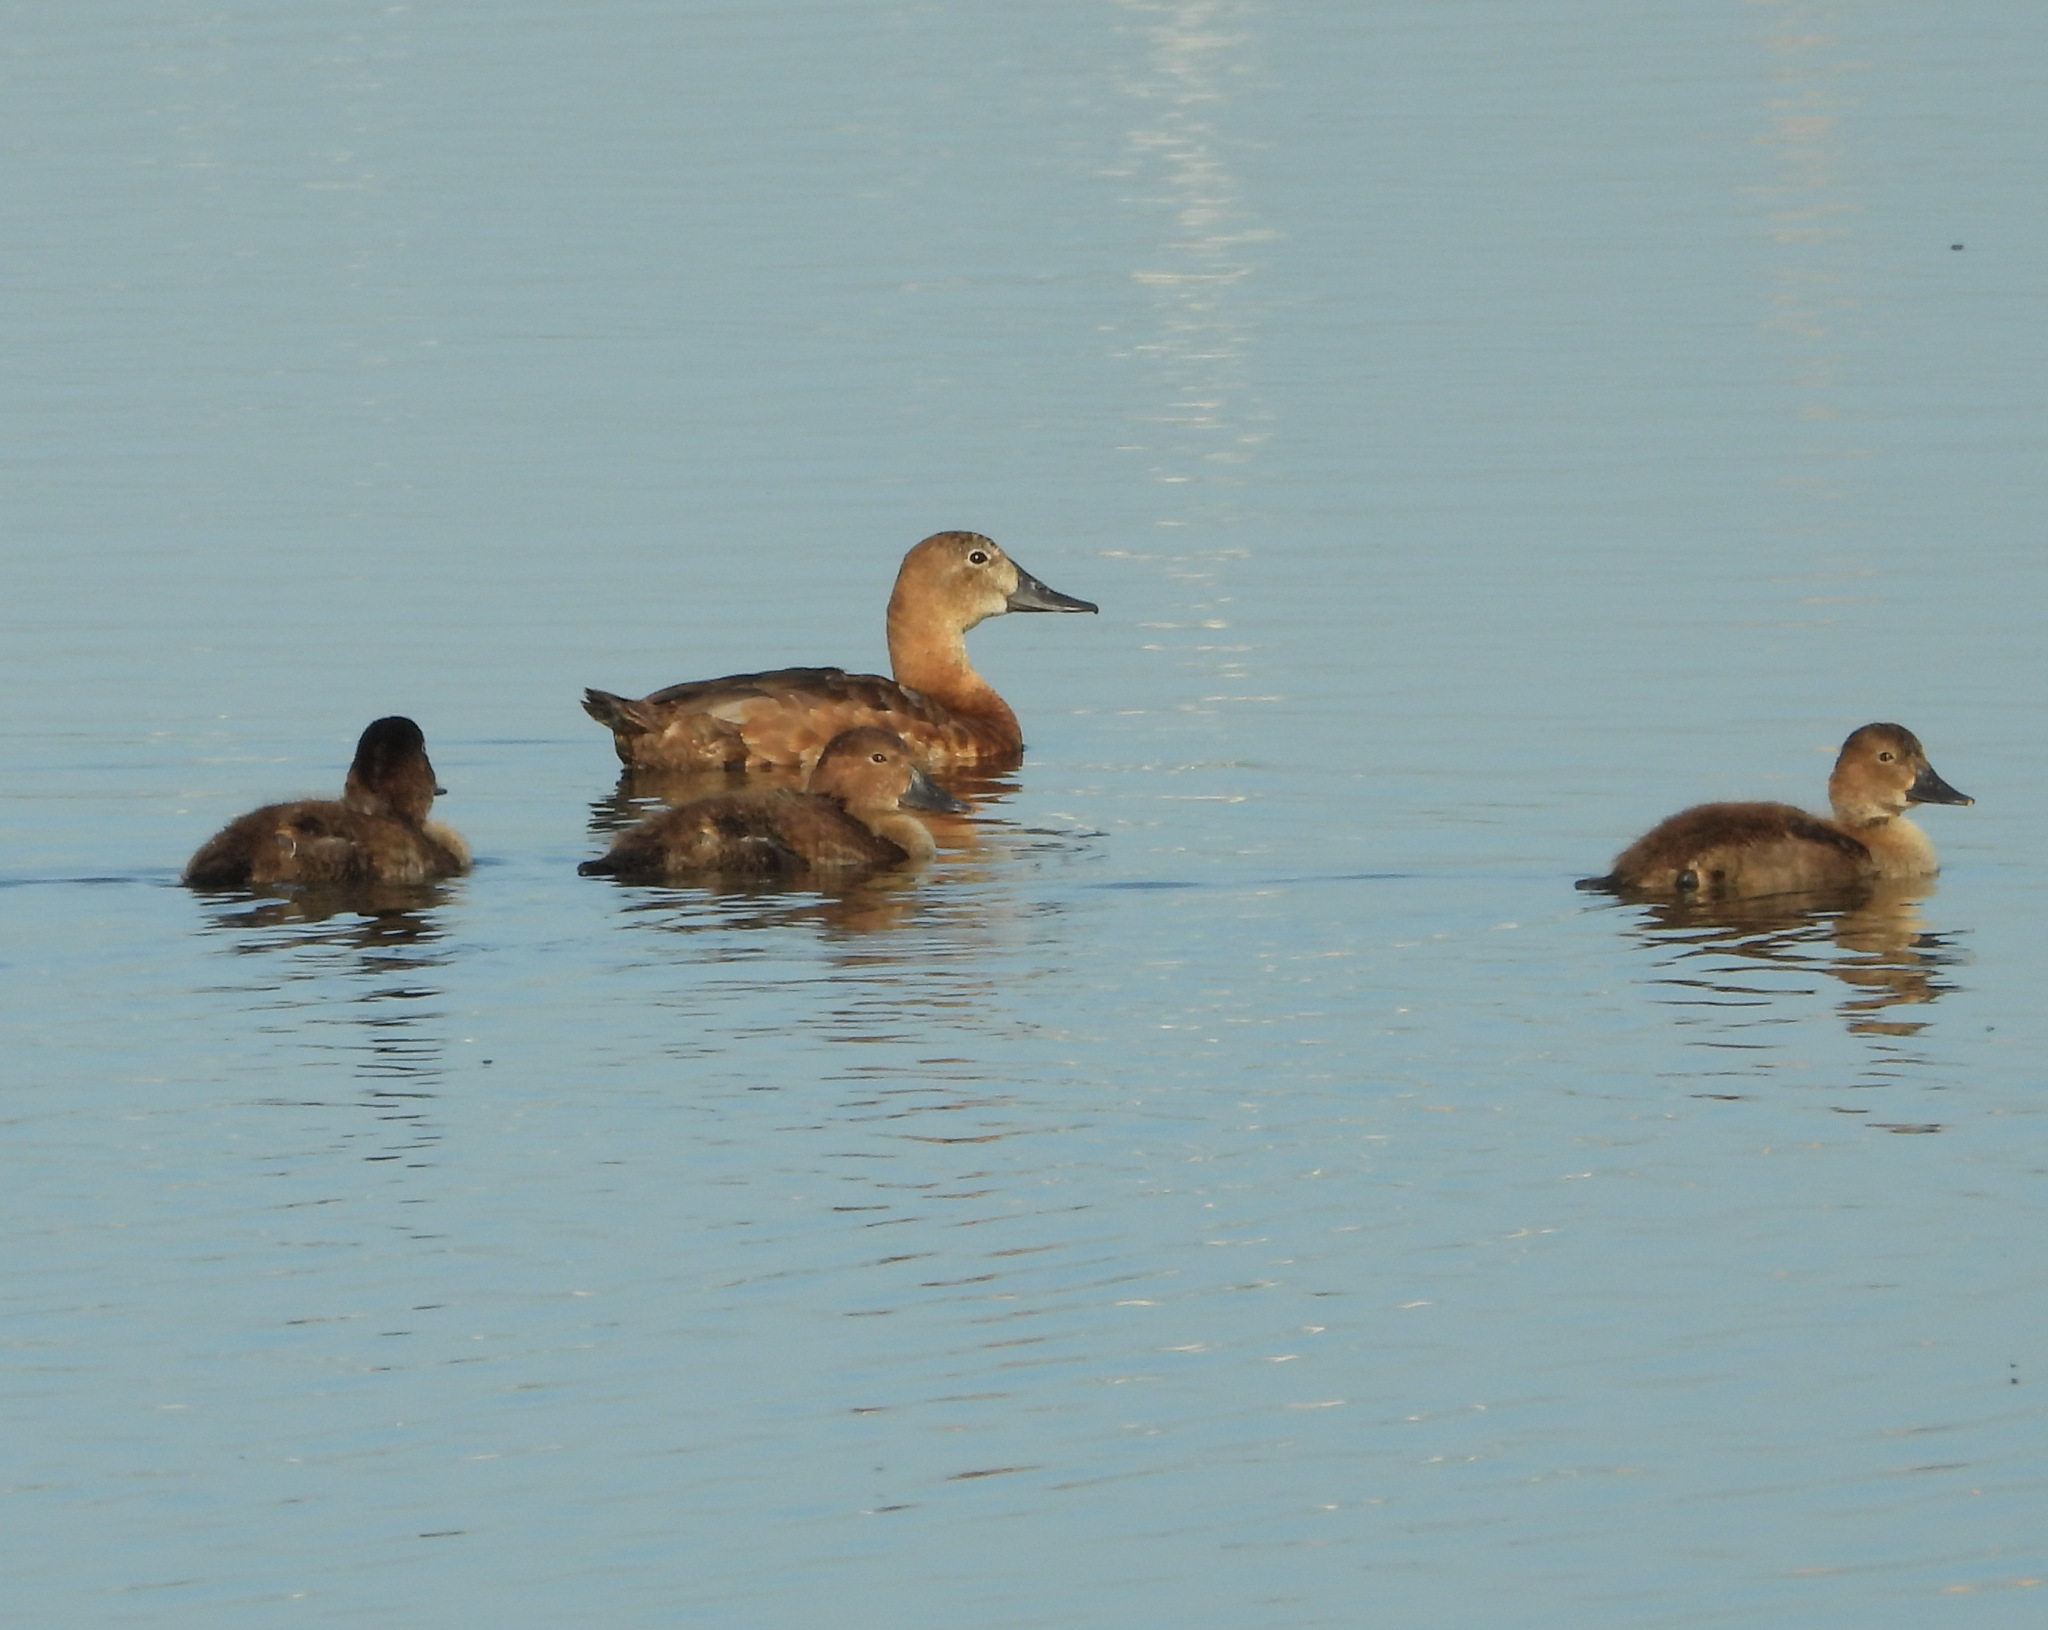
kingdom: Animalia
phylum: Chordata
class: Aves
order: Anseriformes
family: Anatidae
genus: Aythya
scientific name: Aythya ferina
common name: Common pochard
